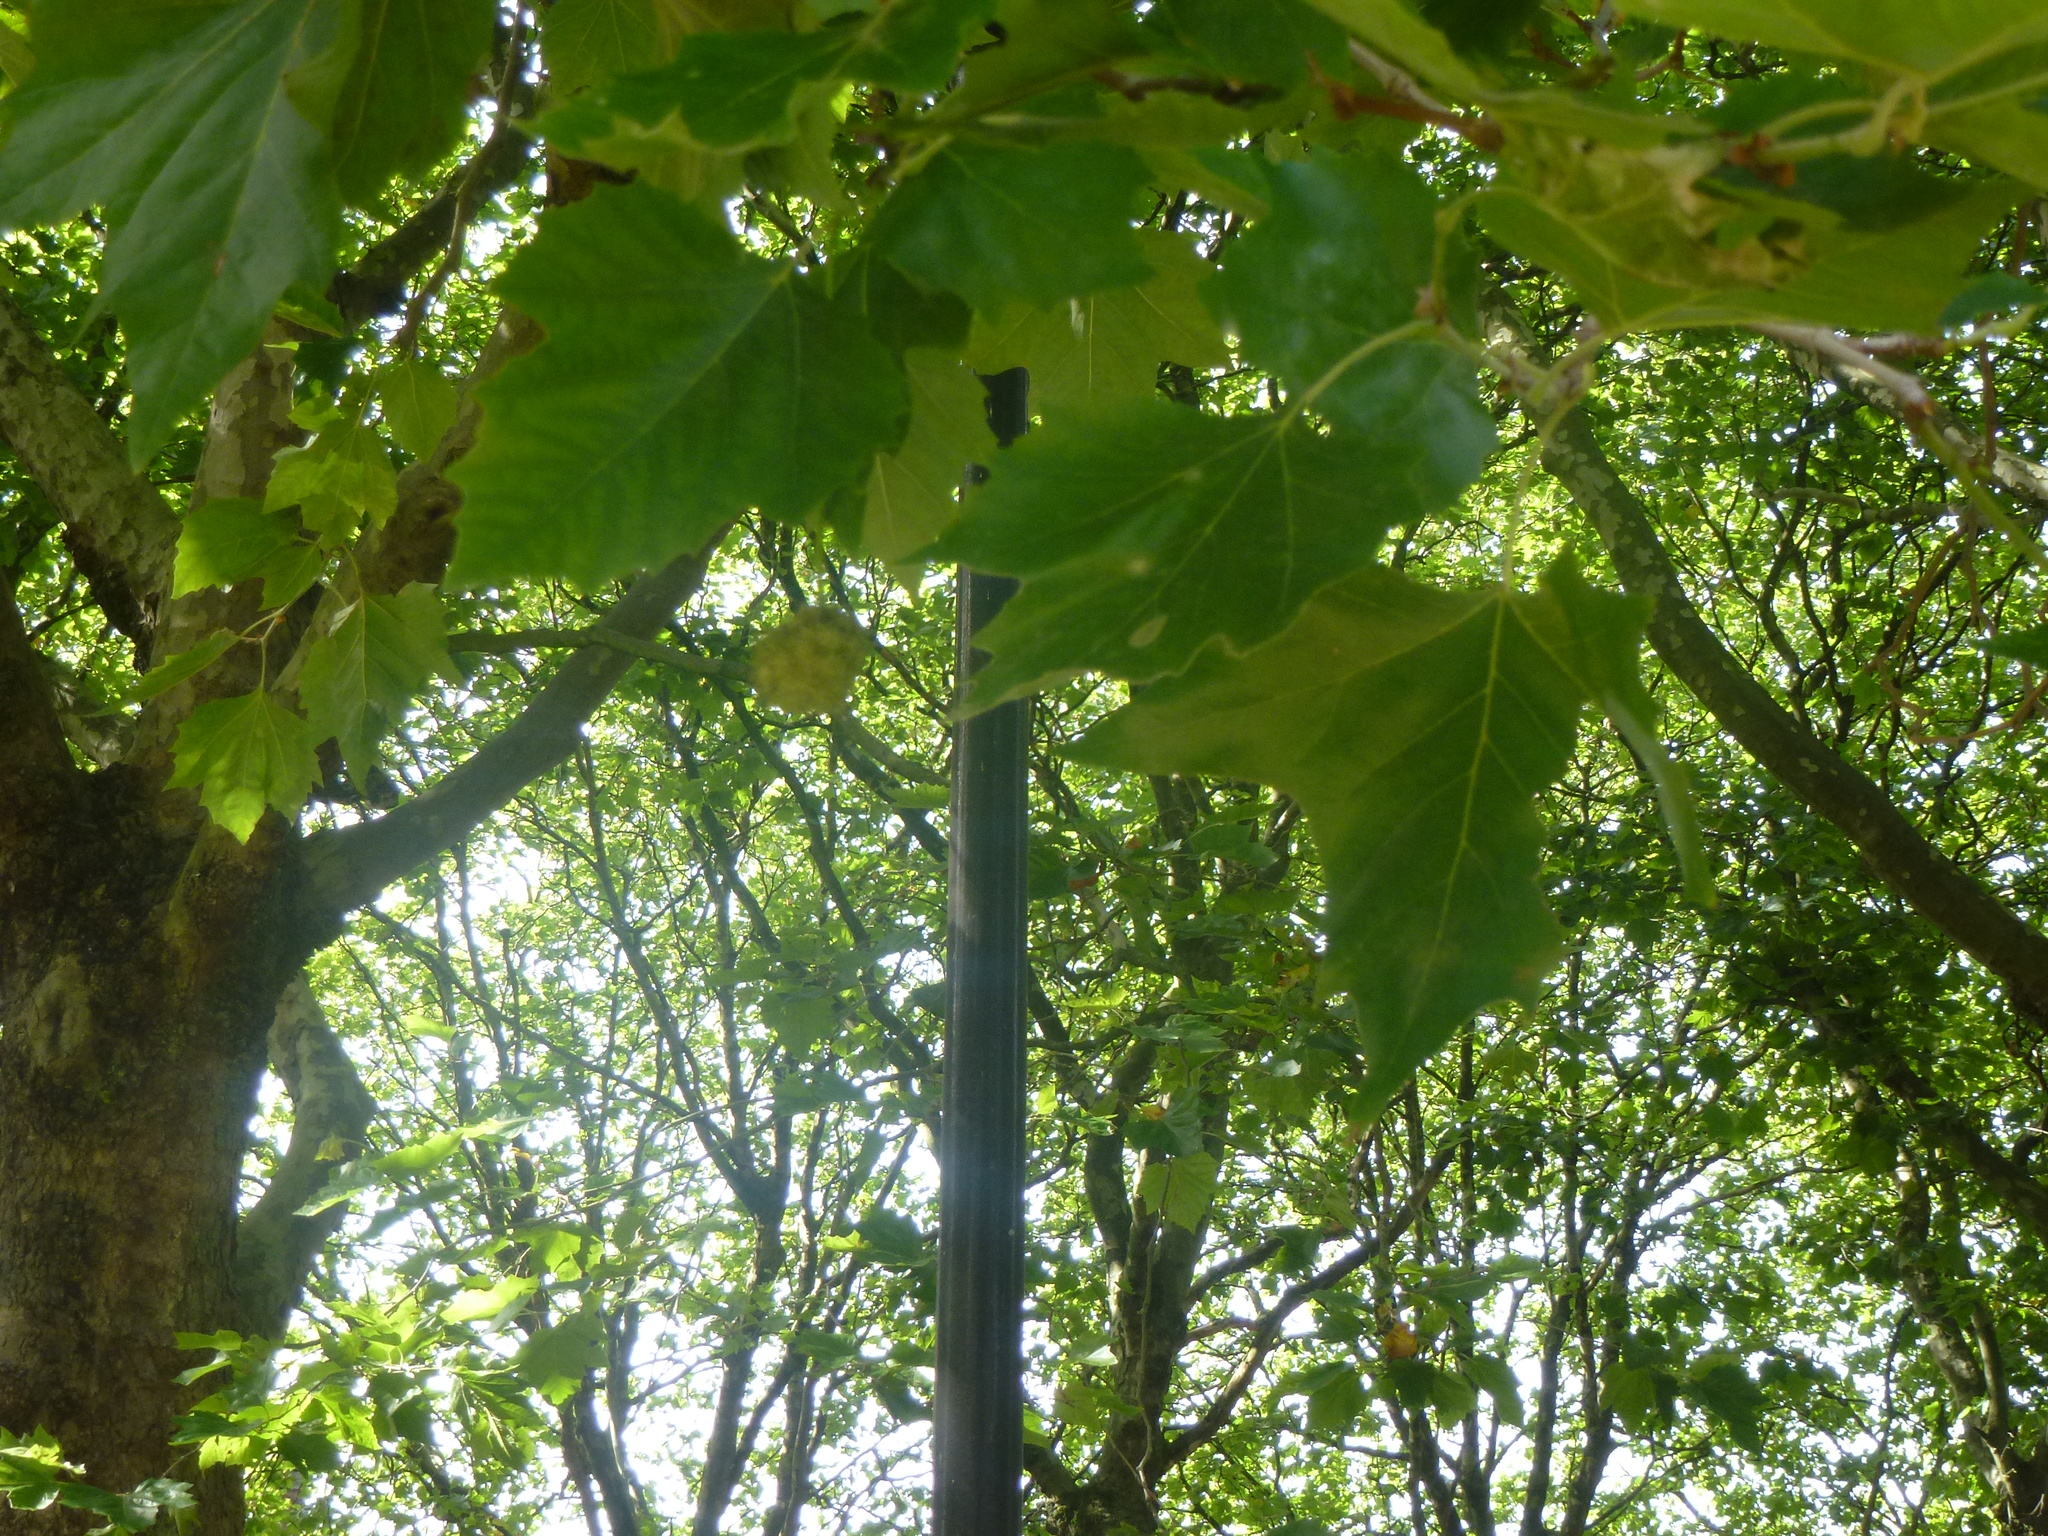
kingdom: Plantae
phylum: Tracheophyta
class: Magnoliopsida
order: Proteales
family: Platanaceae
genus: Platanus
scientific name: Platanus hispanica
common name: London plane
